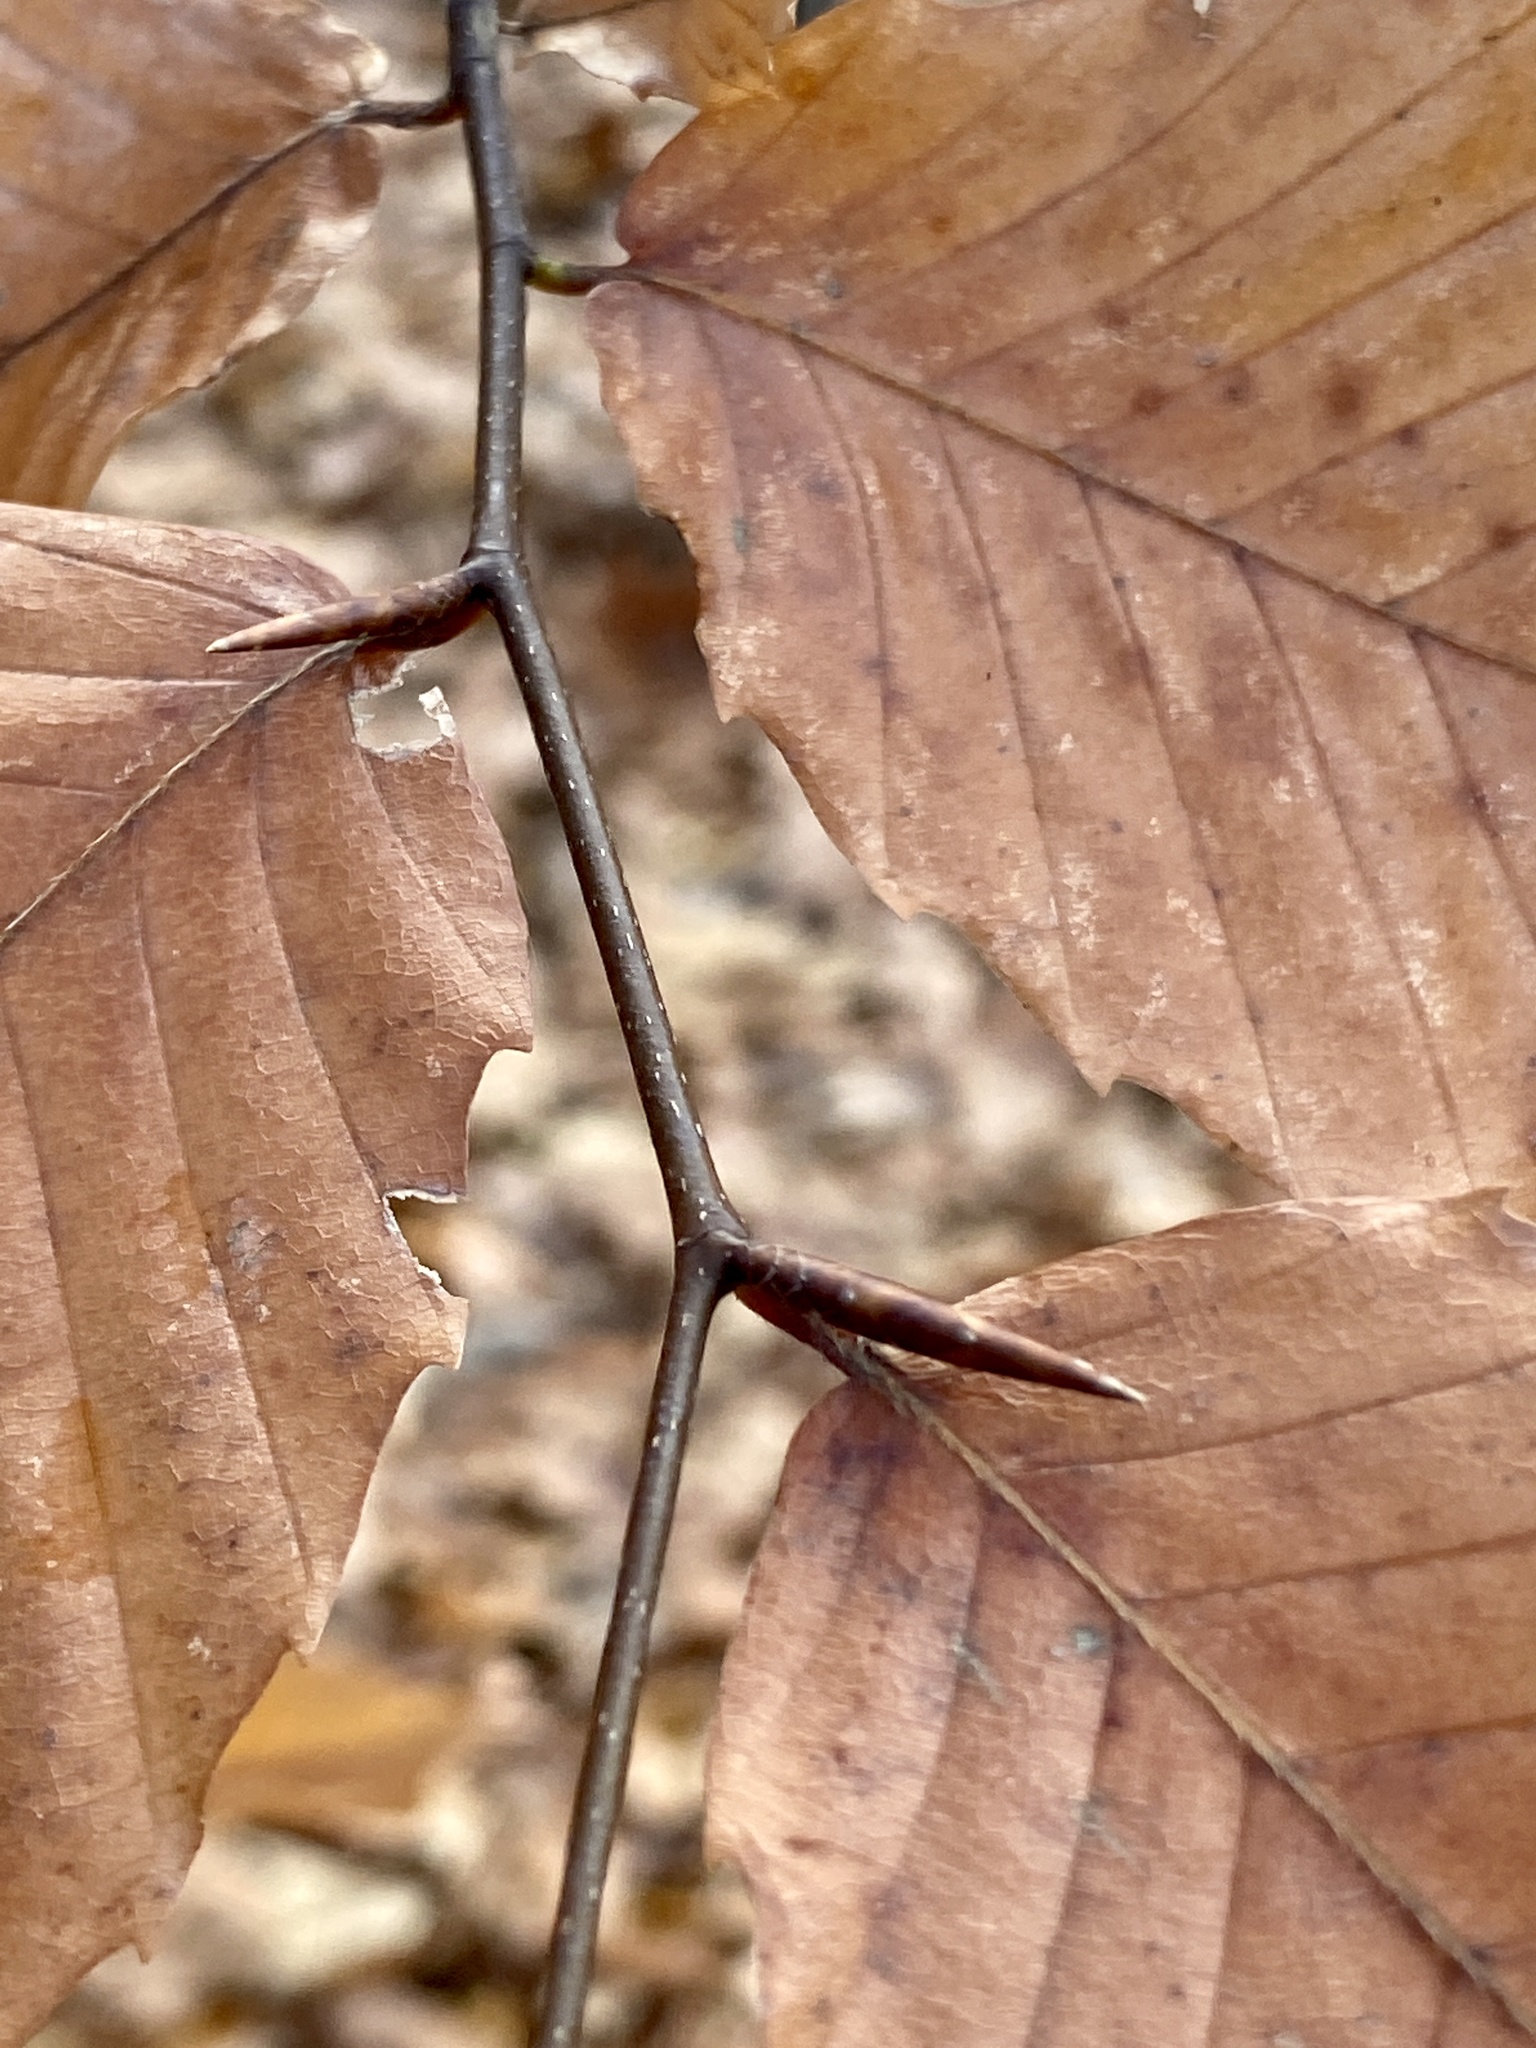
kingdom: Plantae
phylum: Tracheophyta
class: Magnoliopsida
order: Fagales
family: Fagaceae
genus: Fagus
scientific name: Fagus grandifolia
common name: American beech
